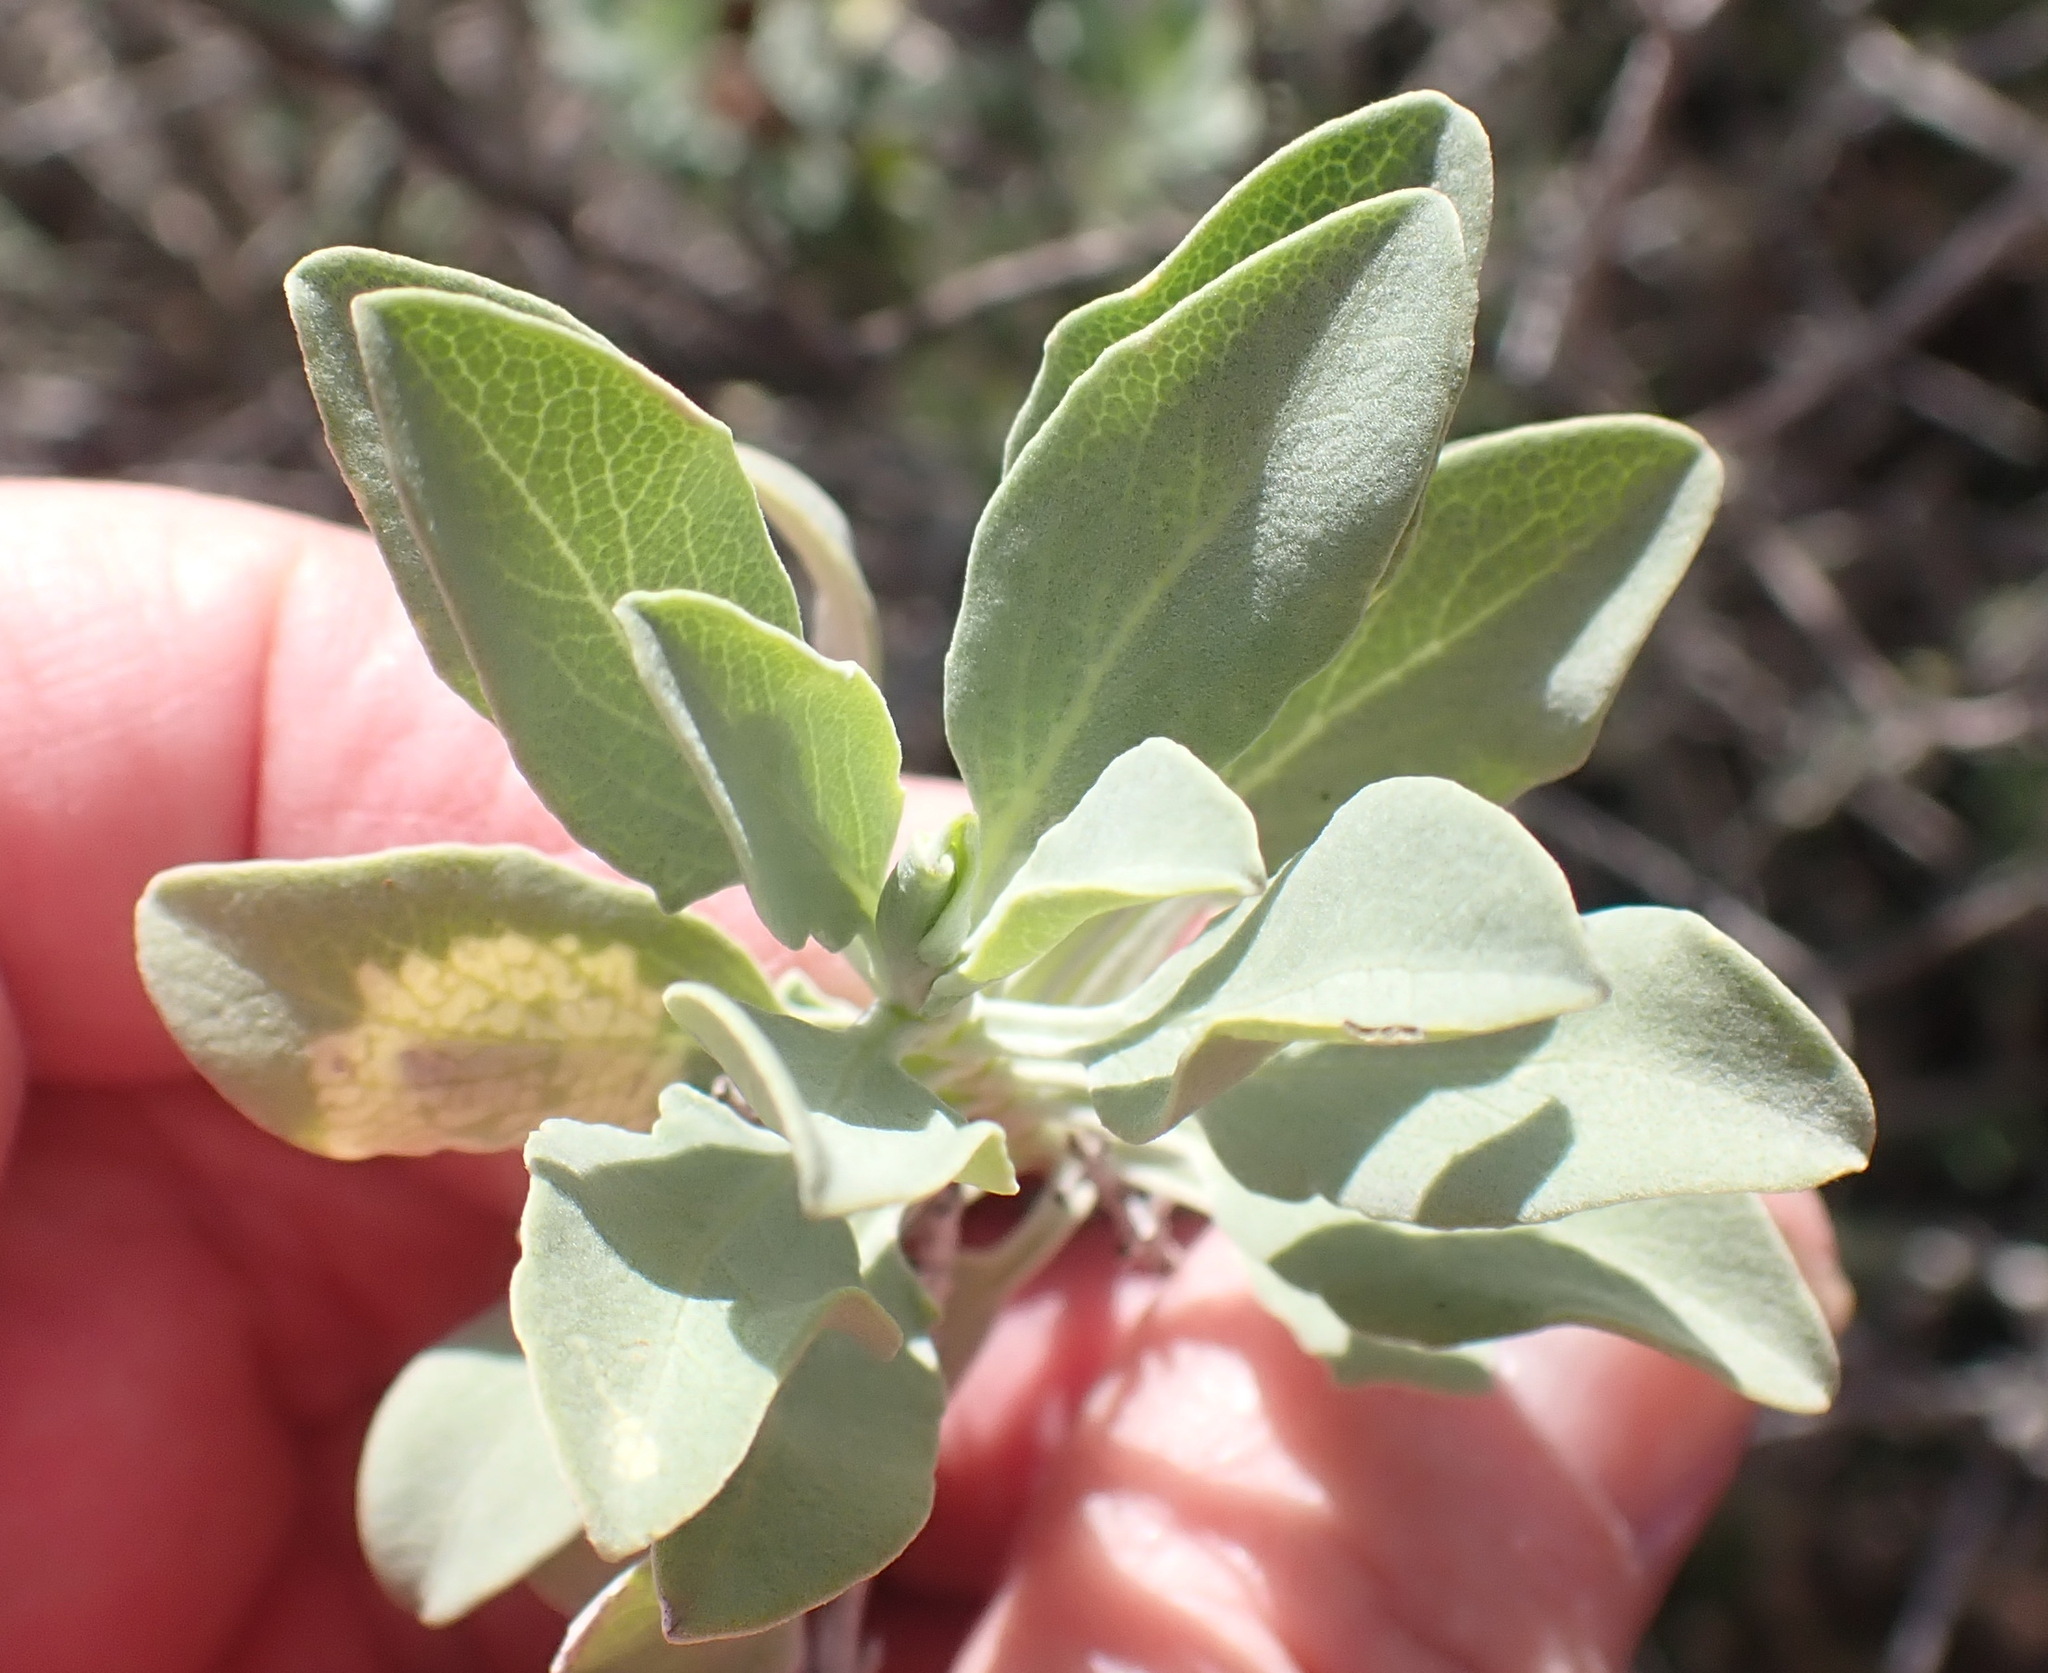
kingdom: Plantae
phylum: Tracheophyta
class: Magnoliopsida
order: Lamiales
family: Lamiaceae
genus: Salvia
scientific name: Salvia aurea
